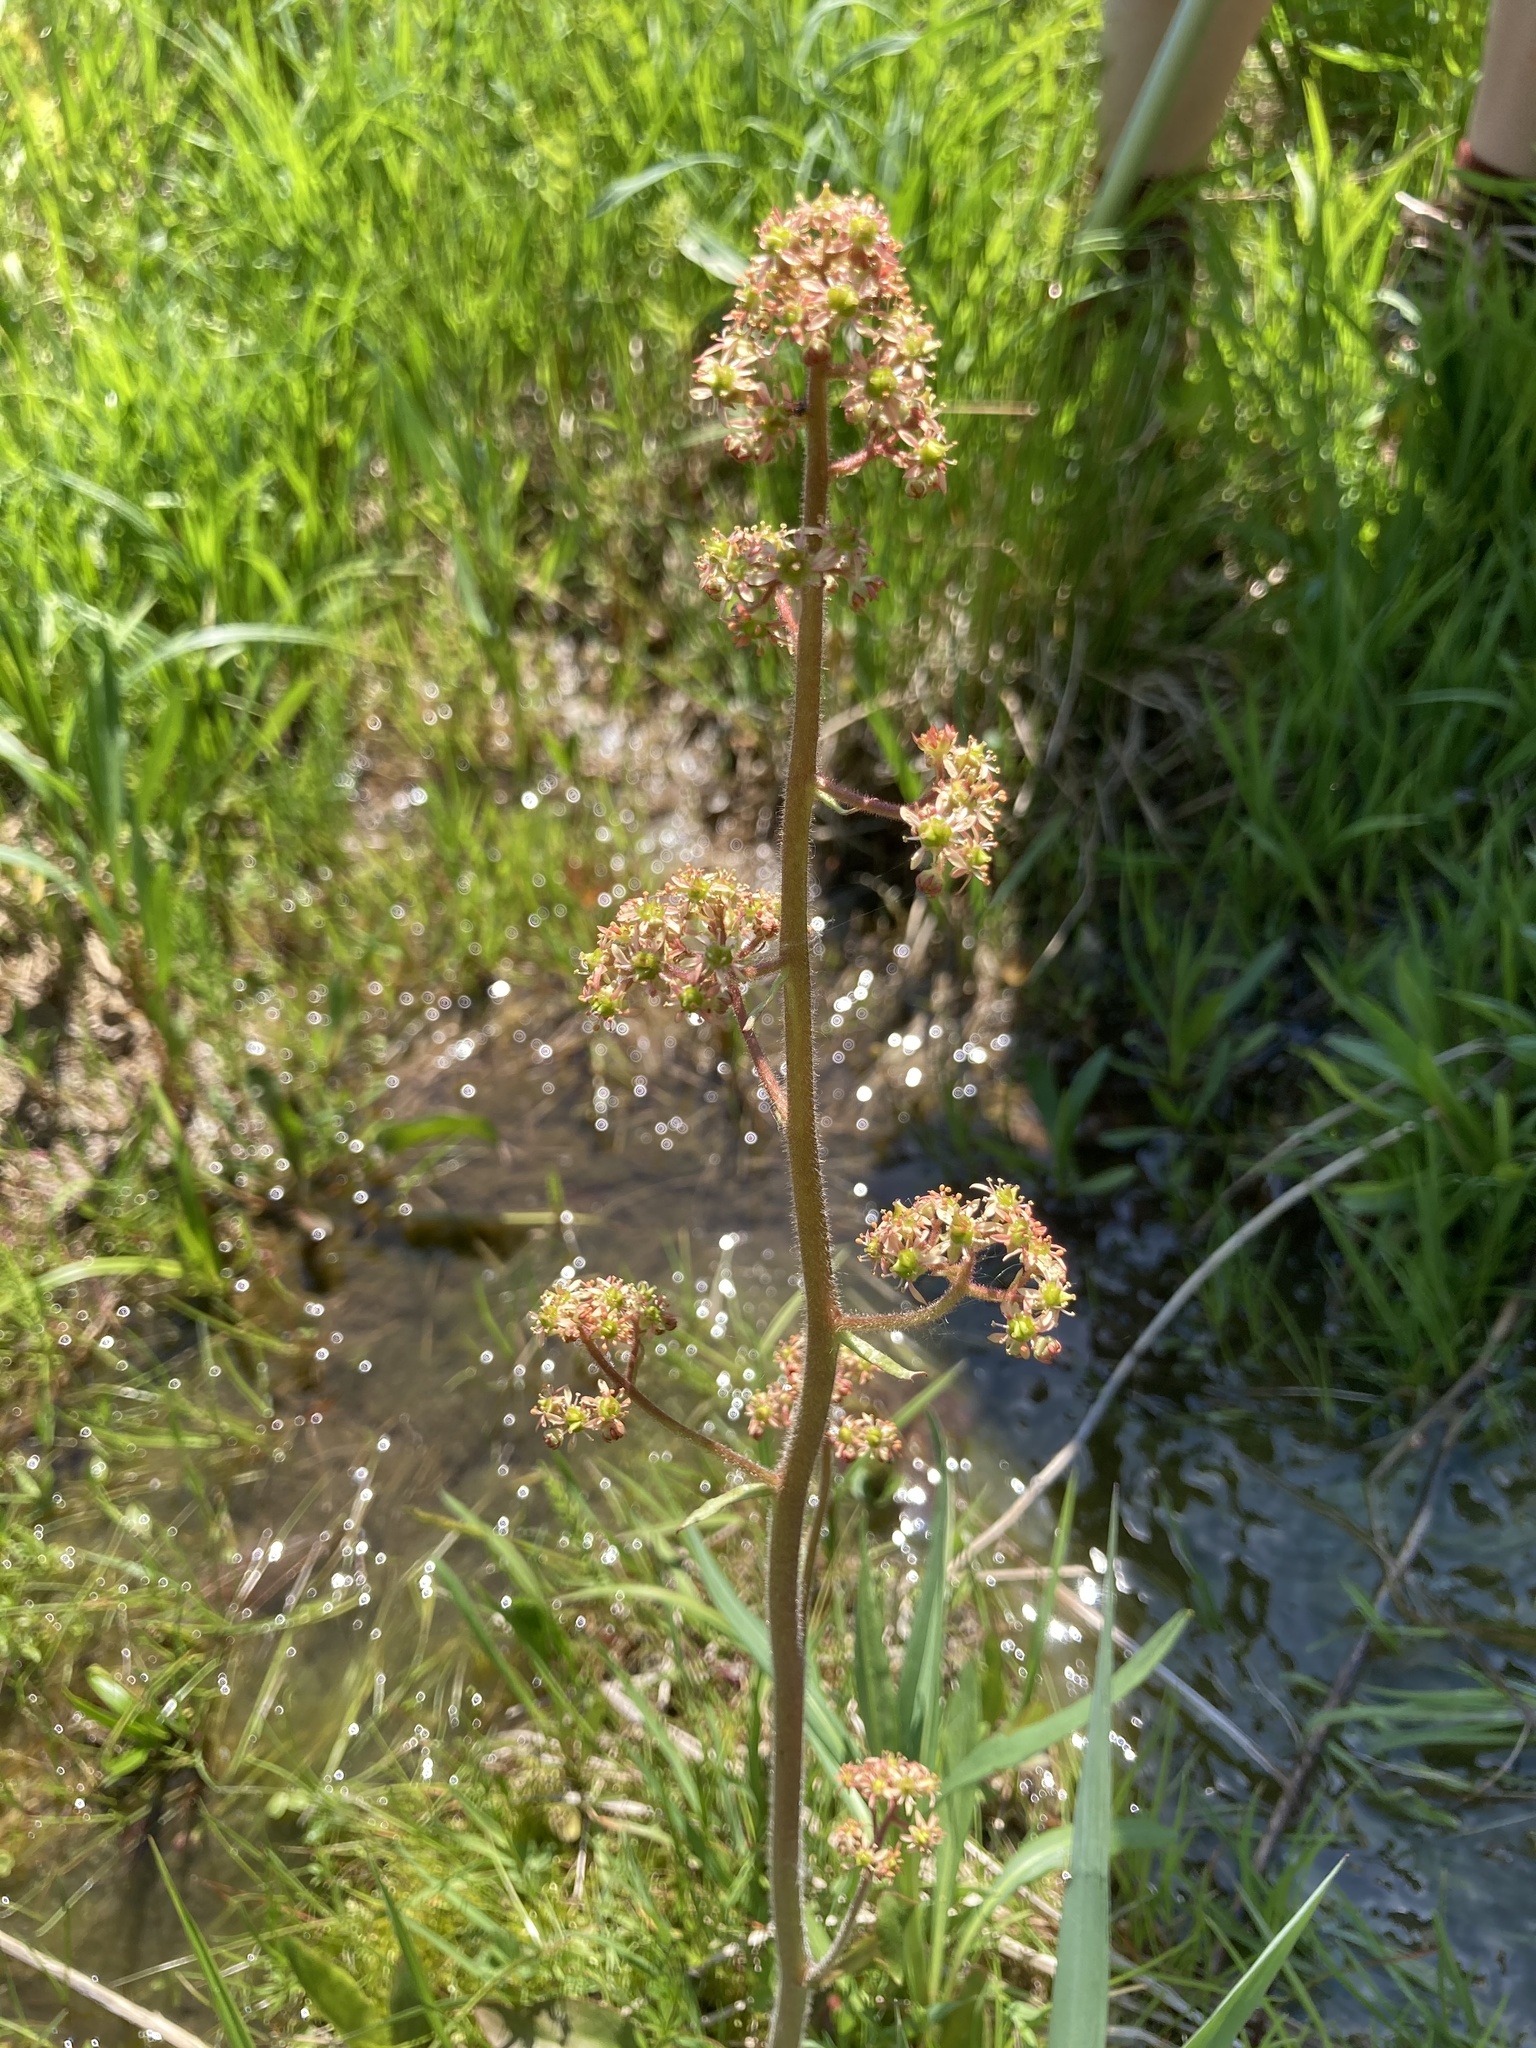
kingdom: Plantae
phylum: Tracheophyta
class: Magnoliopsida
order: Saxifragales
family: Saxifragaceae
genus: Micranthes
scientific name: Micranthes pensylvanica
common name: Marsh saxifrage
